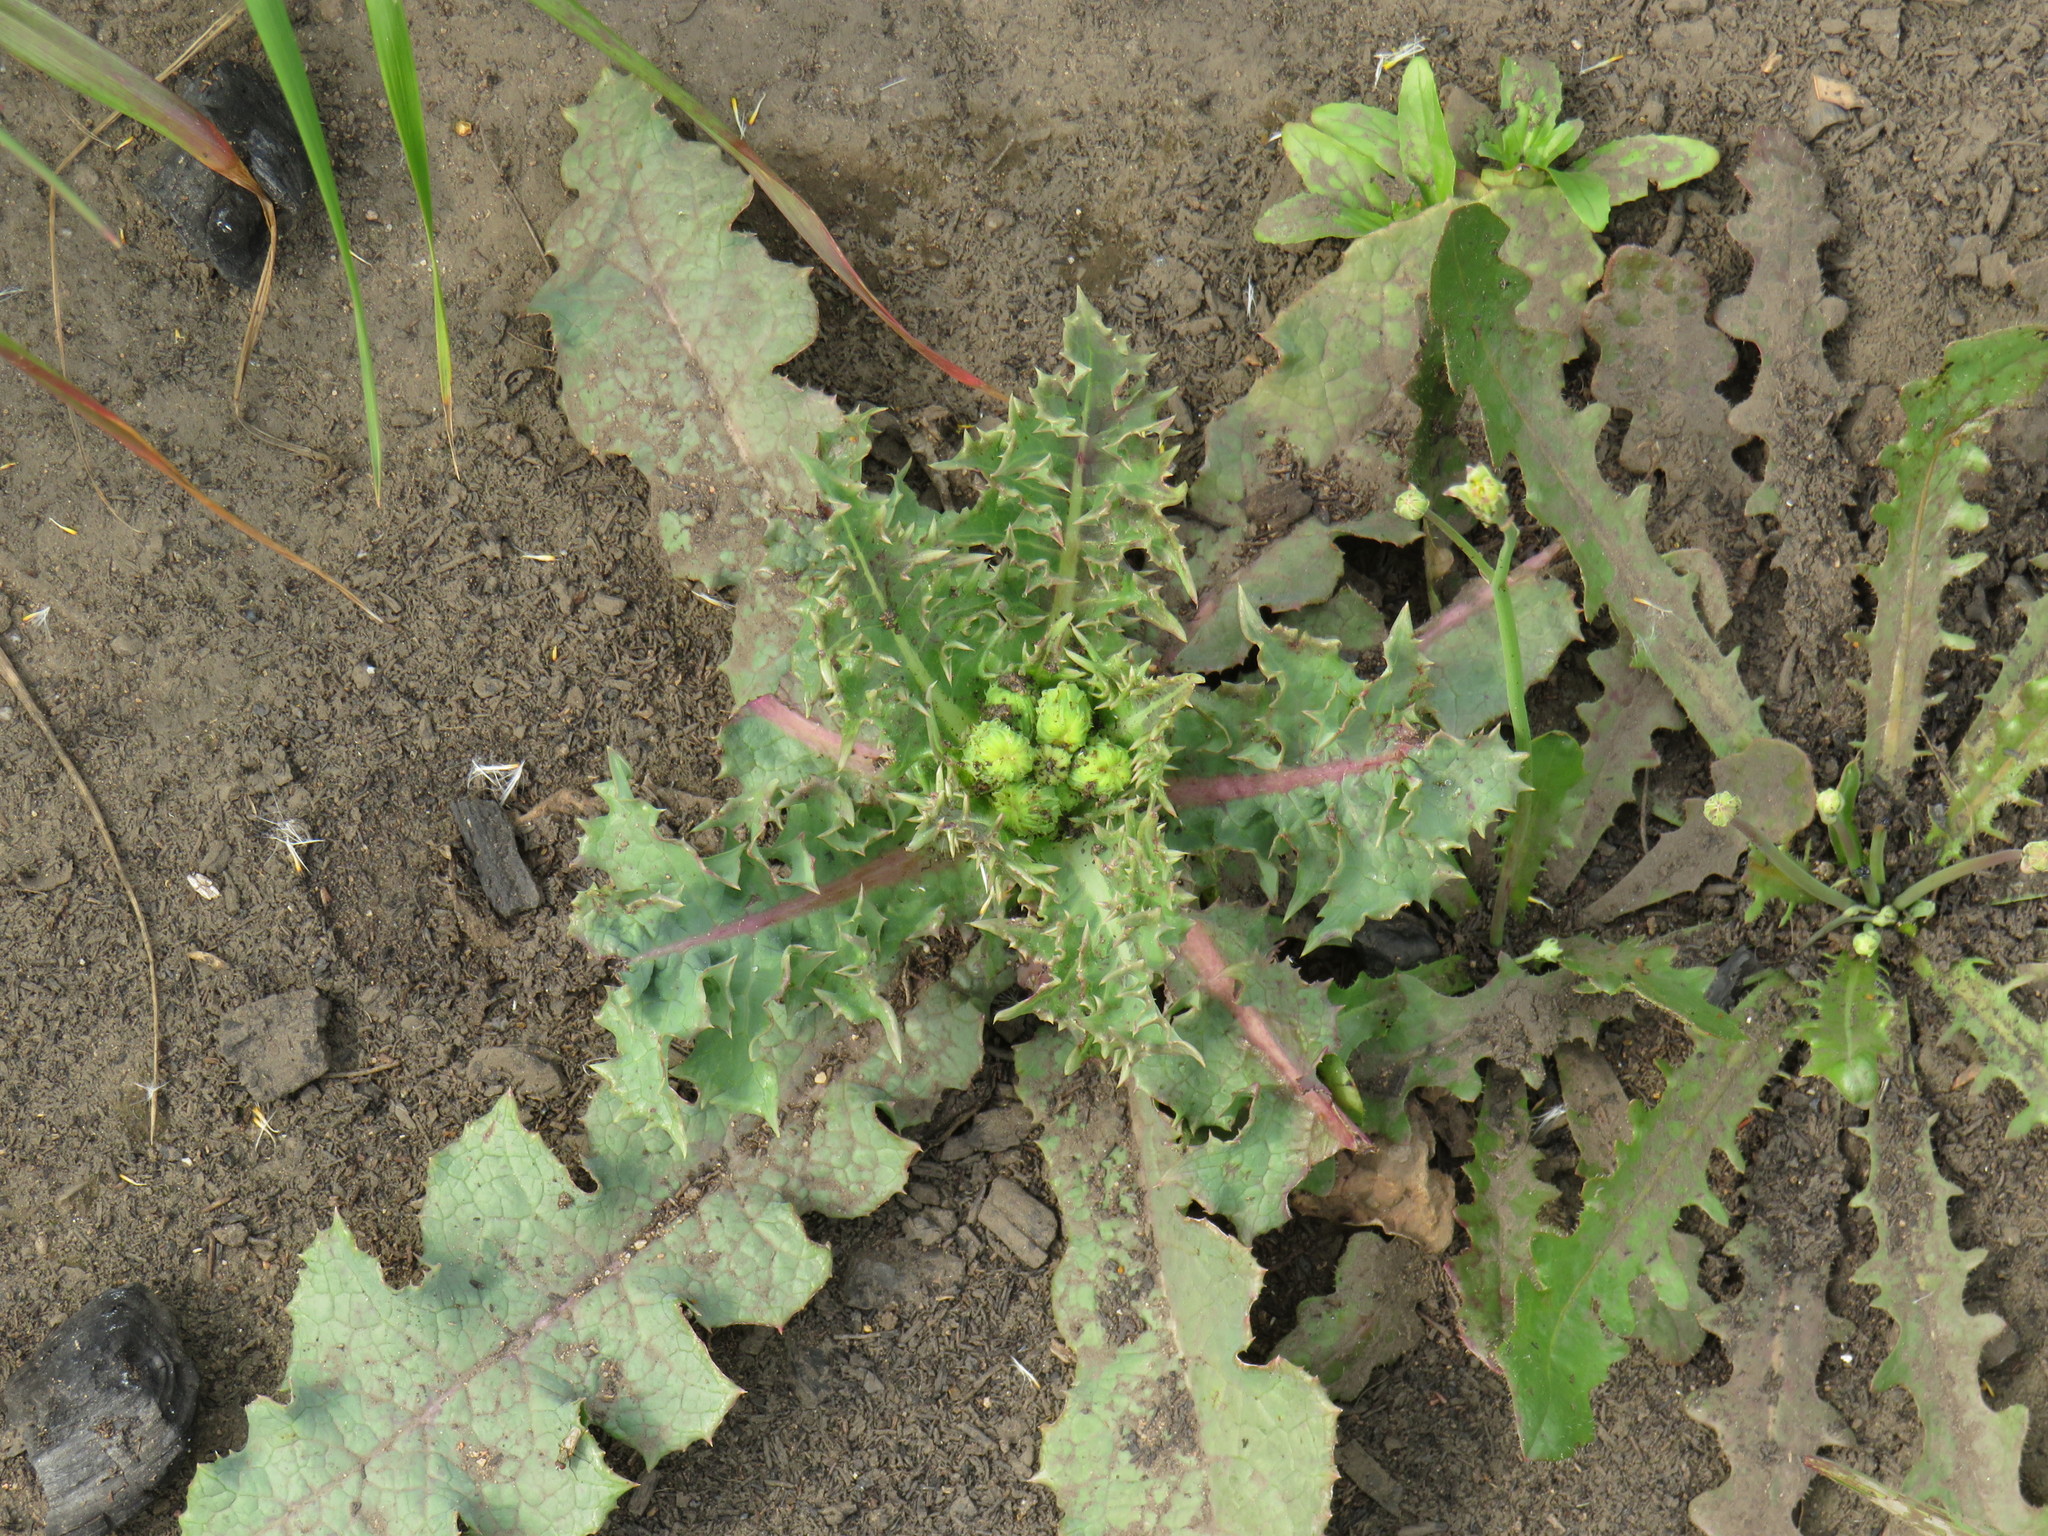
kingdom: Plantae
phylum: Tracheophyta
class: Magnoliopsida
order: Asterales
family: Asteraceae
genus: Sonchus
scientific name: Sonchus asper
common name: Prickly sow-thistle
